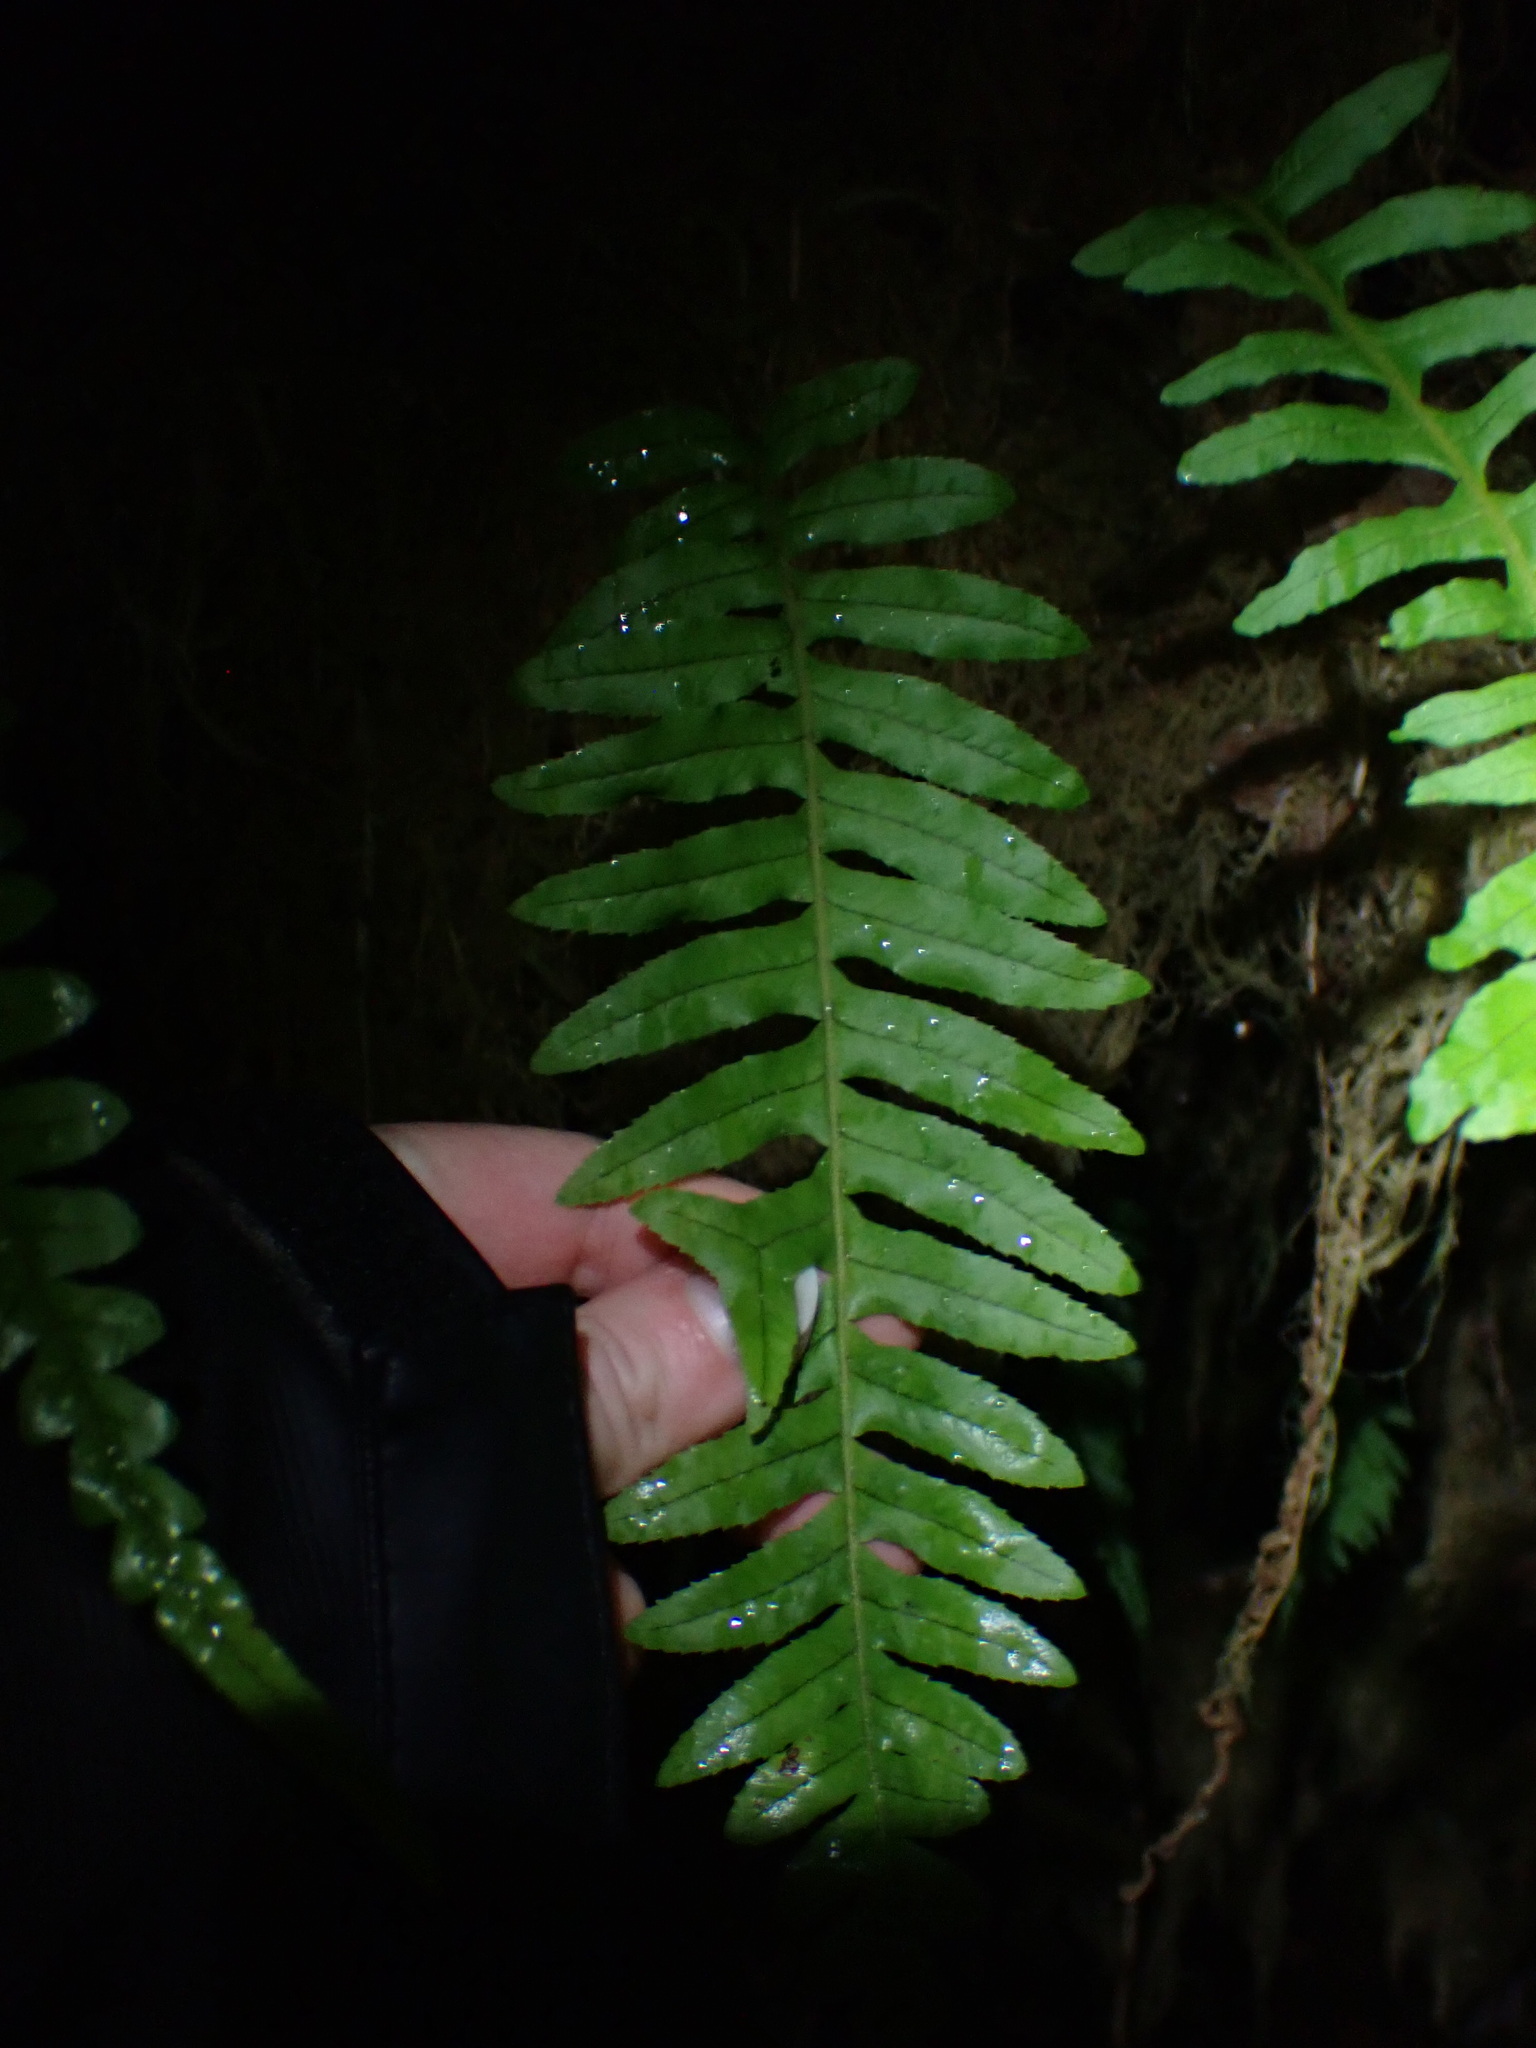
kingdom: Plantae
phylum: Tracheophyta
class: Polypodiopsida
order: Polypodiales
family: Polypodiaceae
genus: Polypodium
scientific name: Polypodium glycyrrhiza
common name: Licorice fern
